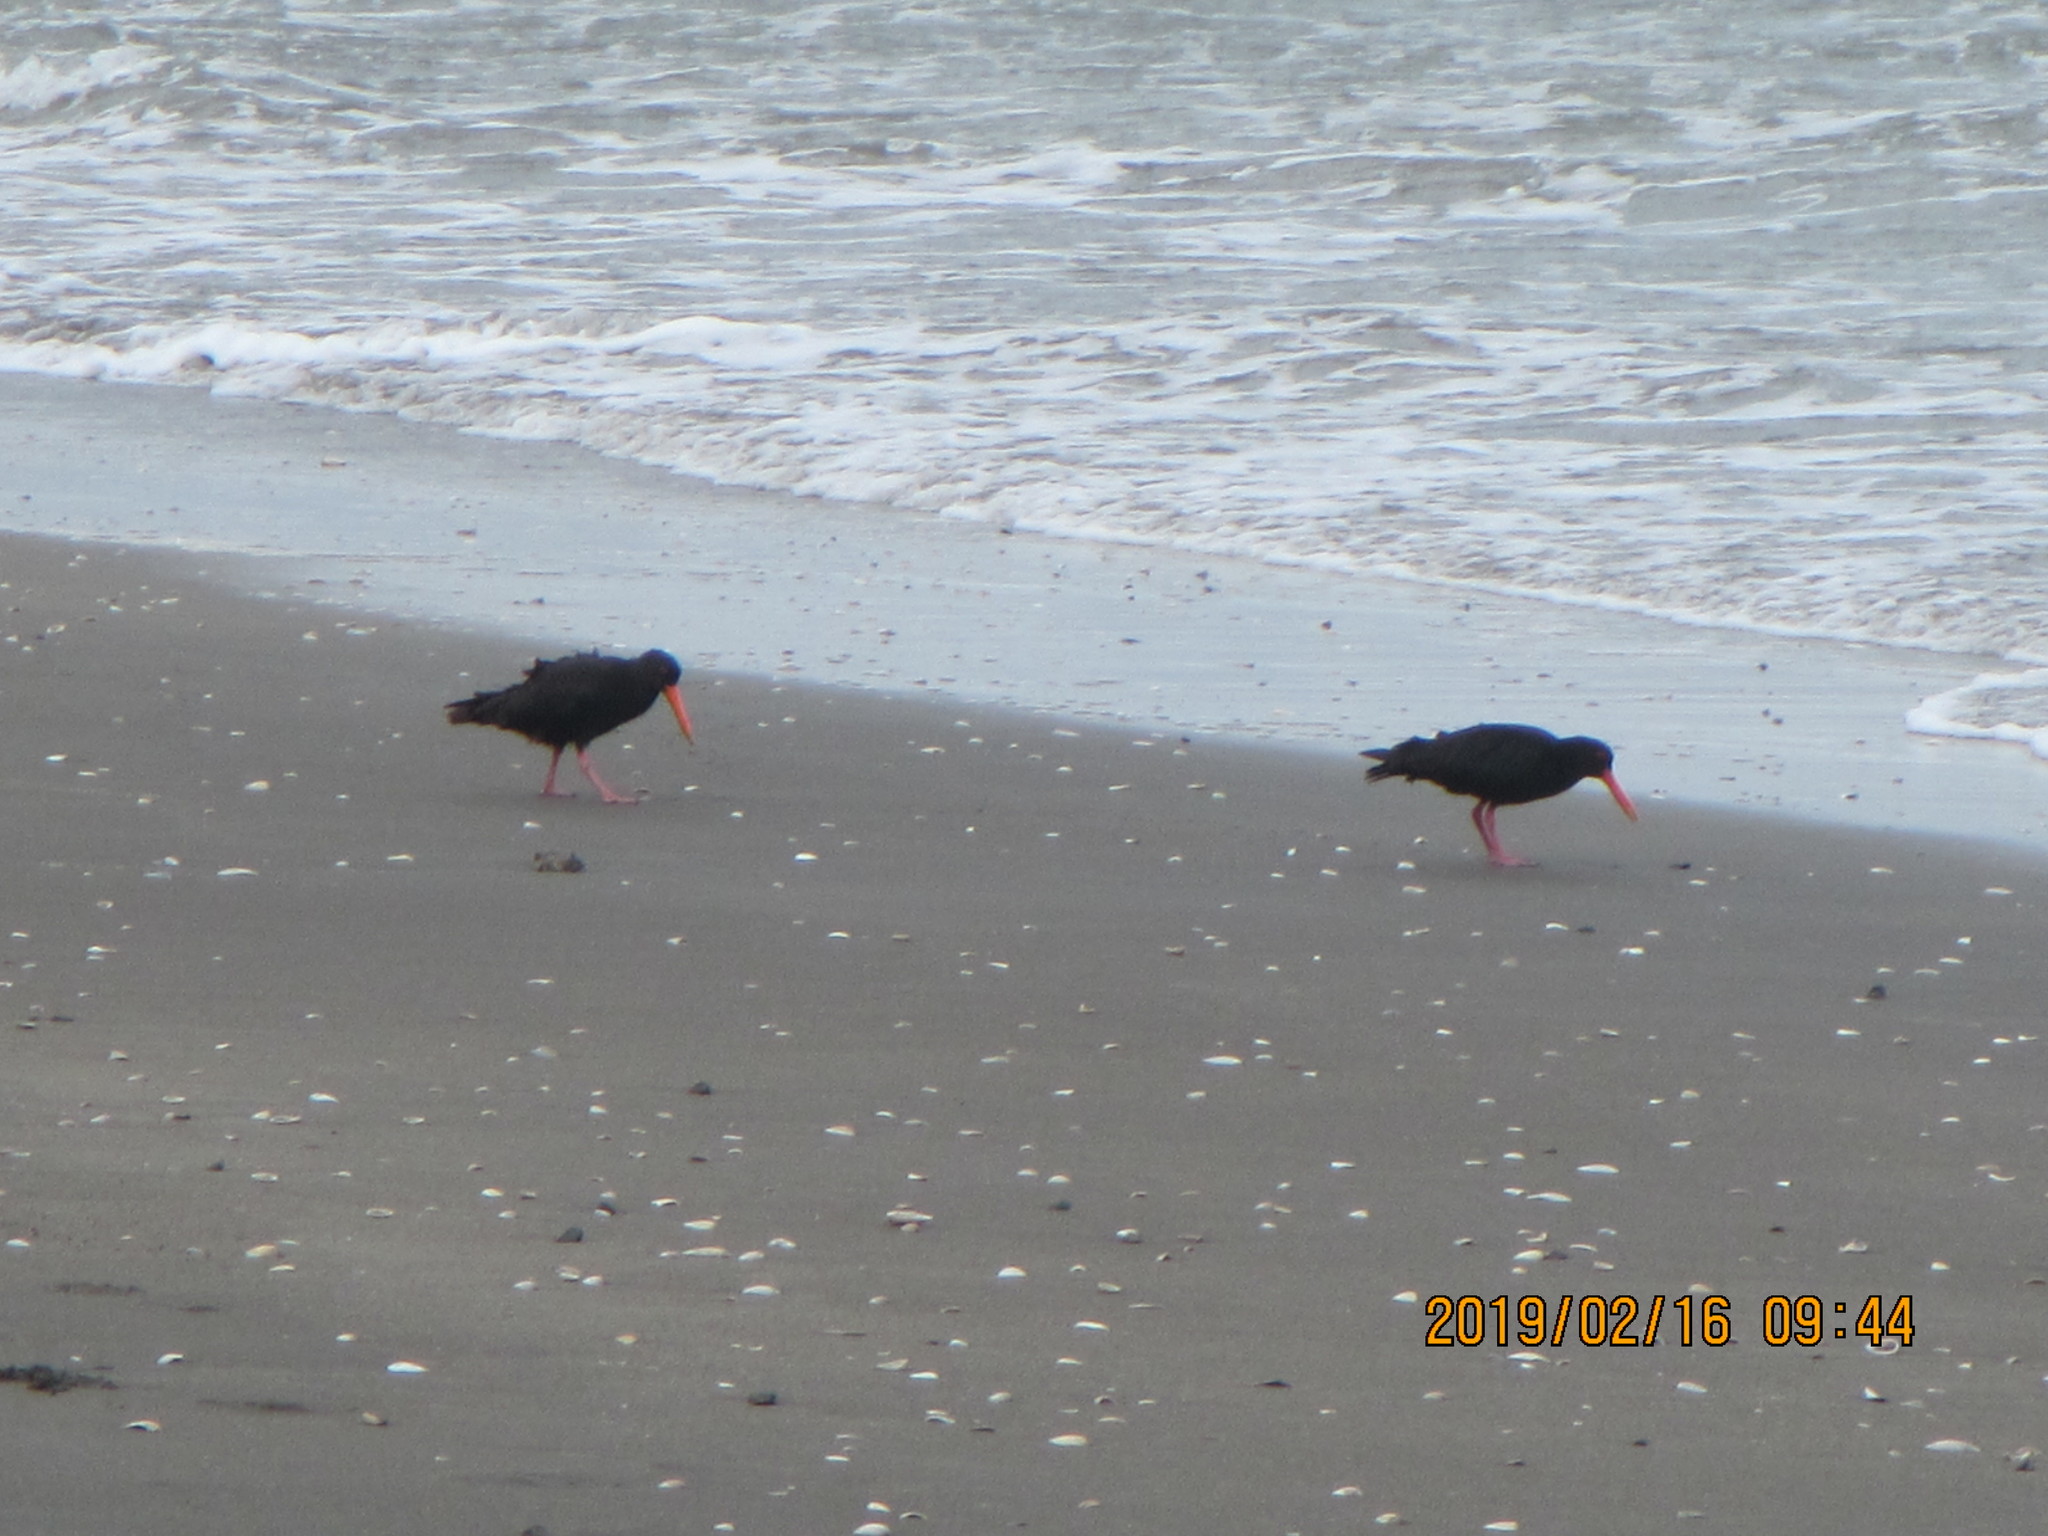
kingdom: Animalia
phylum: Chordata
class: Aves
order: Charadriiformes
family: Haematopodidae
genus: Haematopus
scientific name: Haematopus unicolor
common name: Variable oystercatcher
